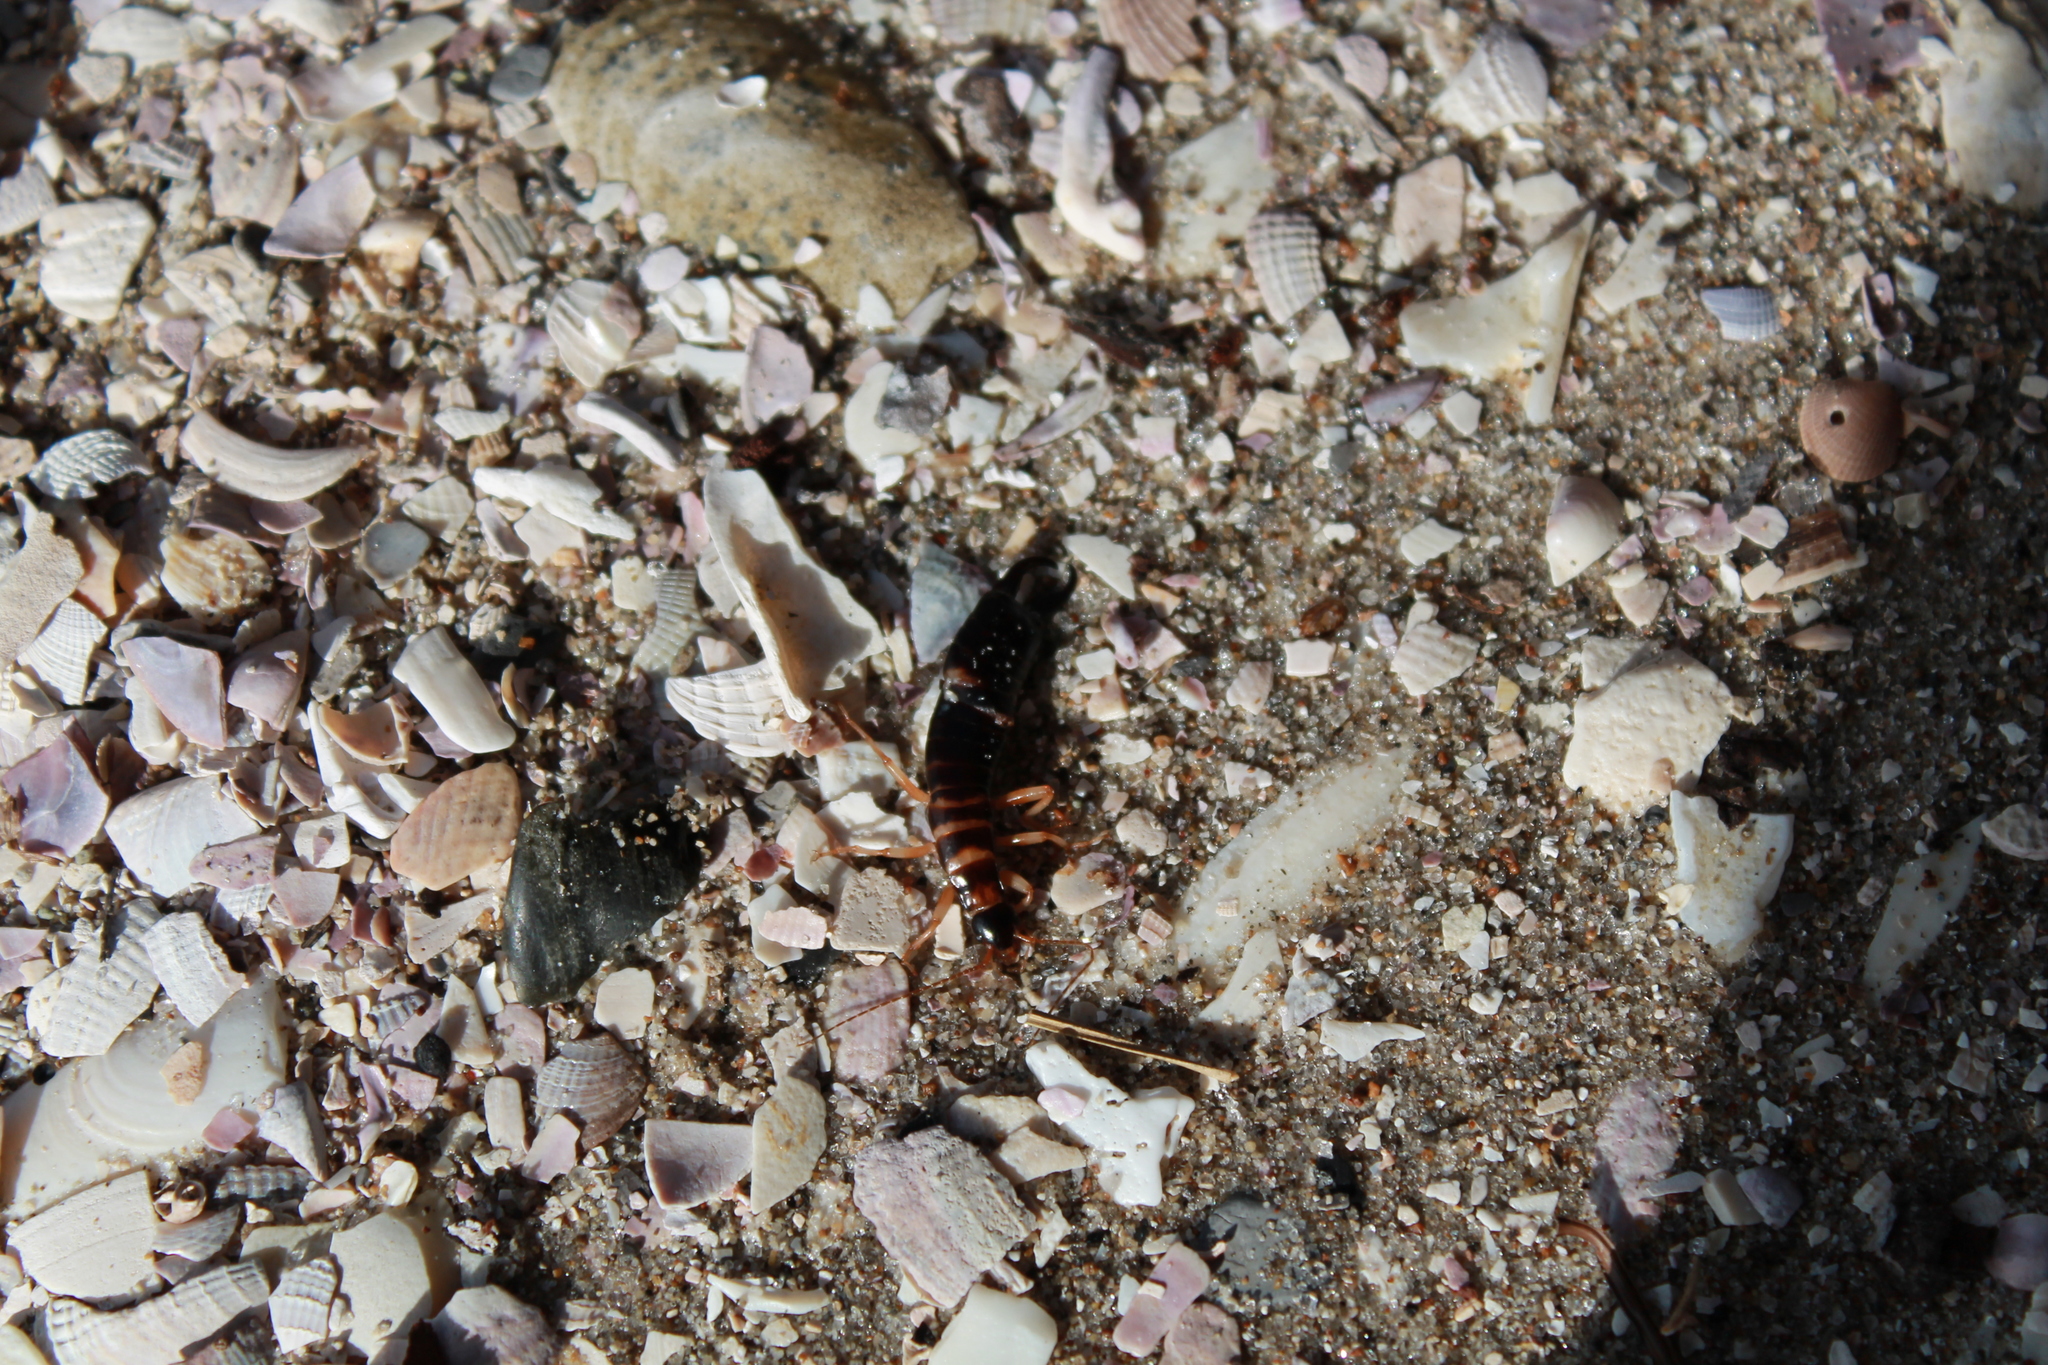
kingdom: Animalia
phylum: Arthropoda
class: Insecta
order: Dermaptera
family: Anisolabididae
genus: Anisolabis
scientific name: Anisolabis littorea
